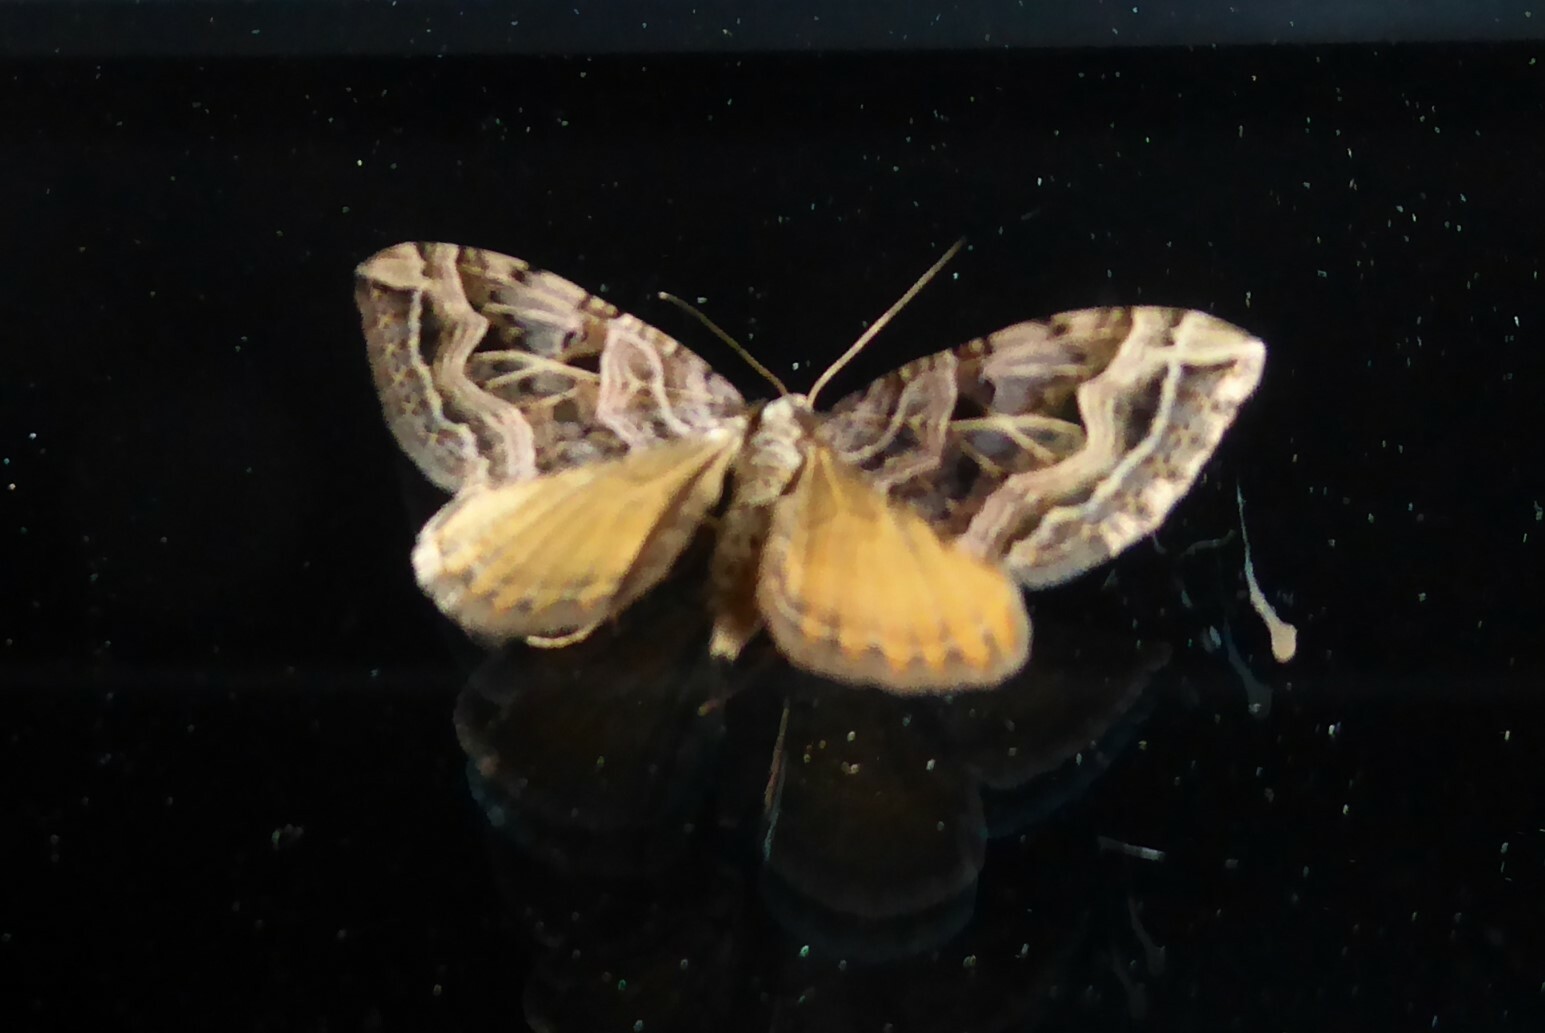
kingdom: Animalia
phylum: Arthropoda
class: Insecta
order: Lepidoptera
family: Geometridae
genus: Xanthorhoe
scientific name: Xanthorhoe semifissata
